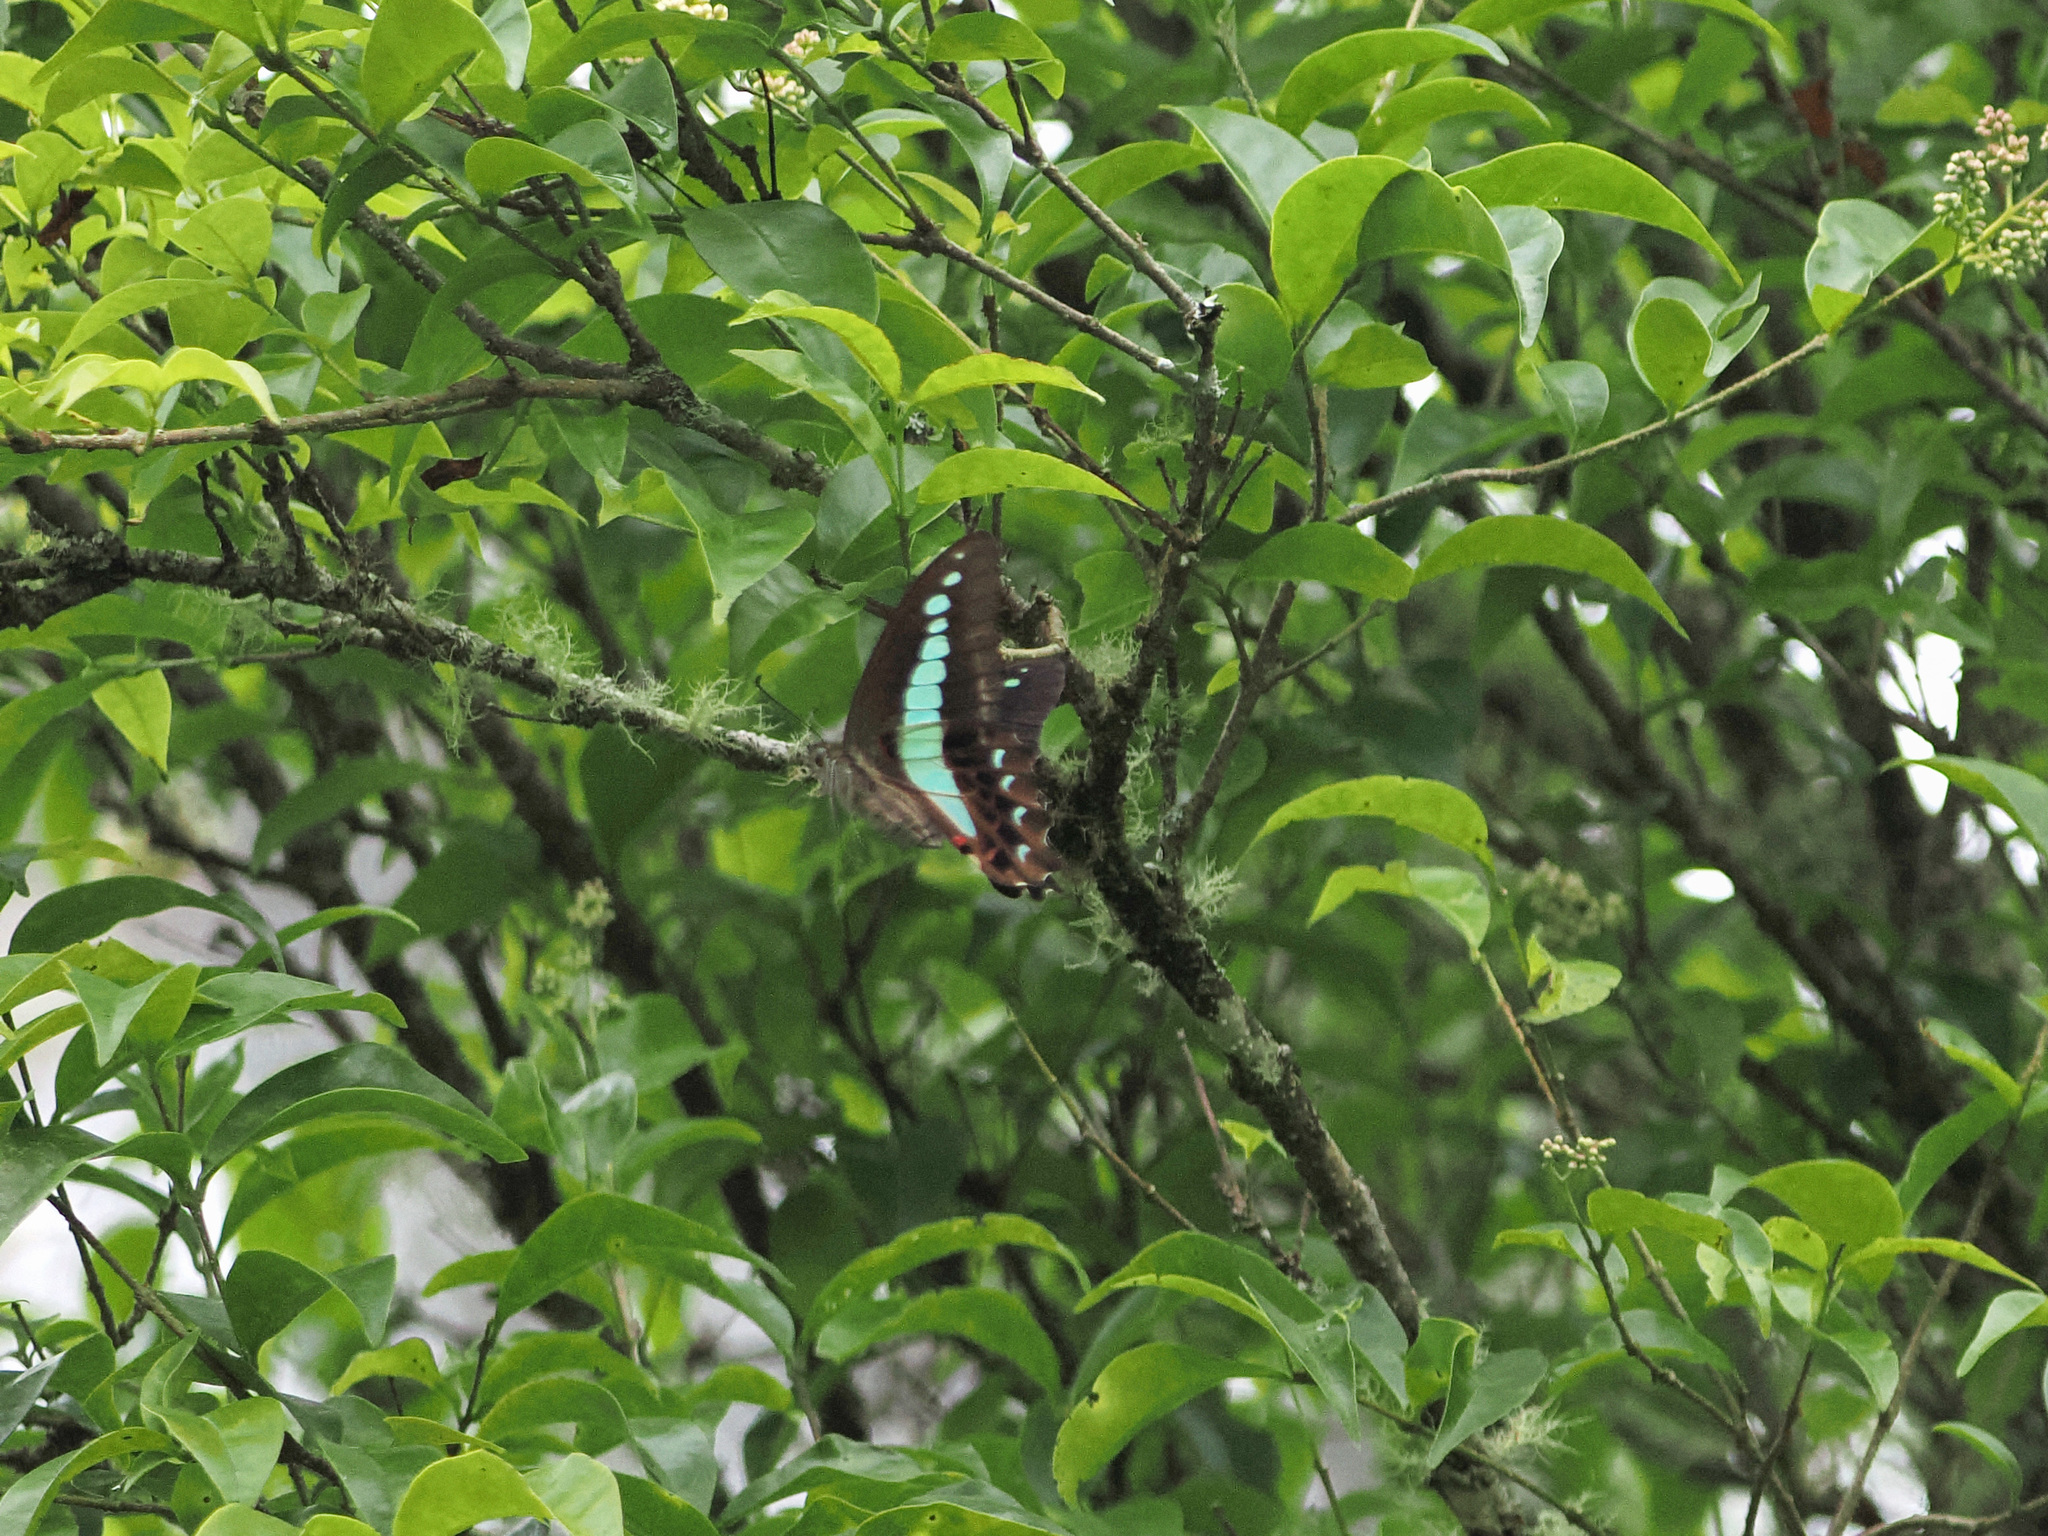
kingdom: Animalia
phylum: Arthropoda
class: Insecta
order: Lepidoptera
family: Papilionidae
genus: Graphium
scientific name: Graphium monticolus
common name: Sulawesi blue triangle
